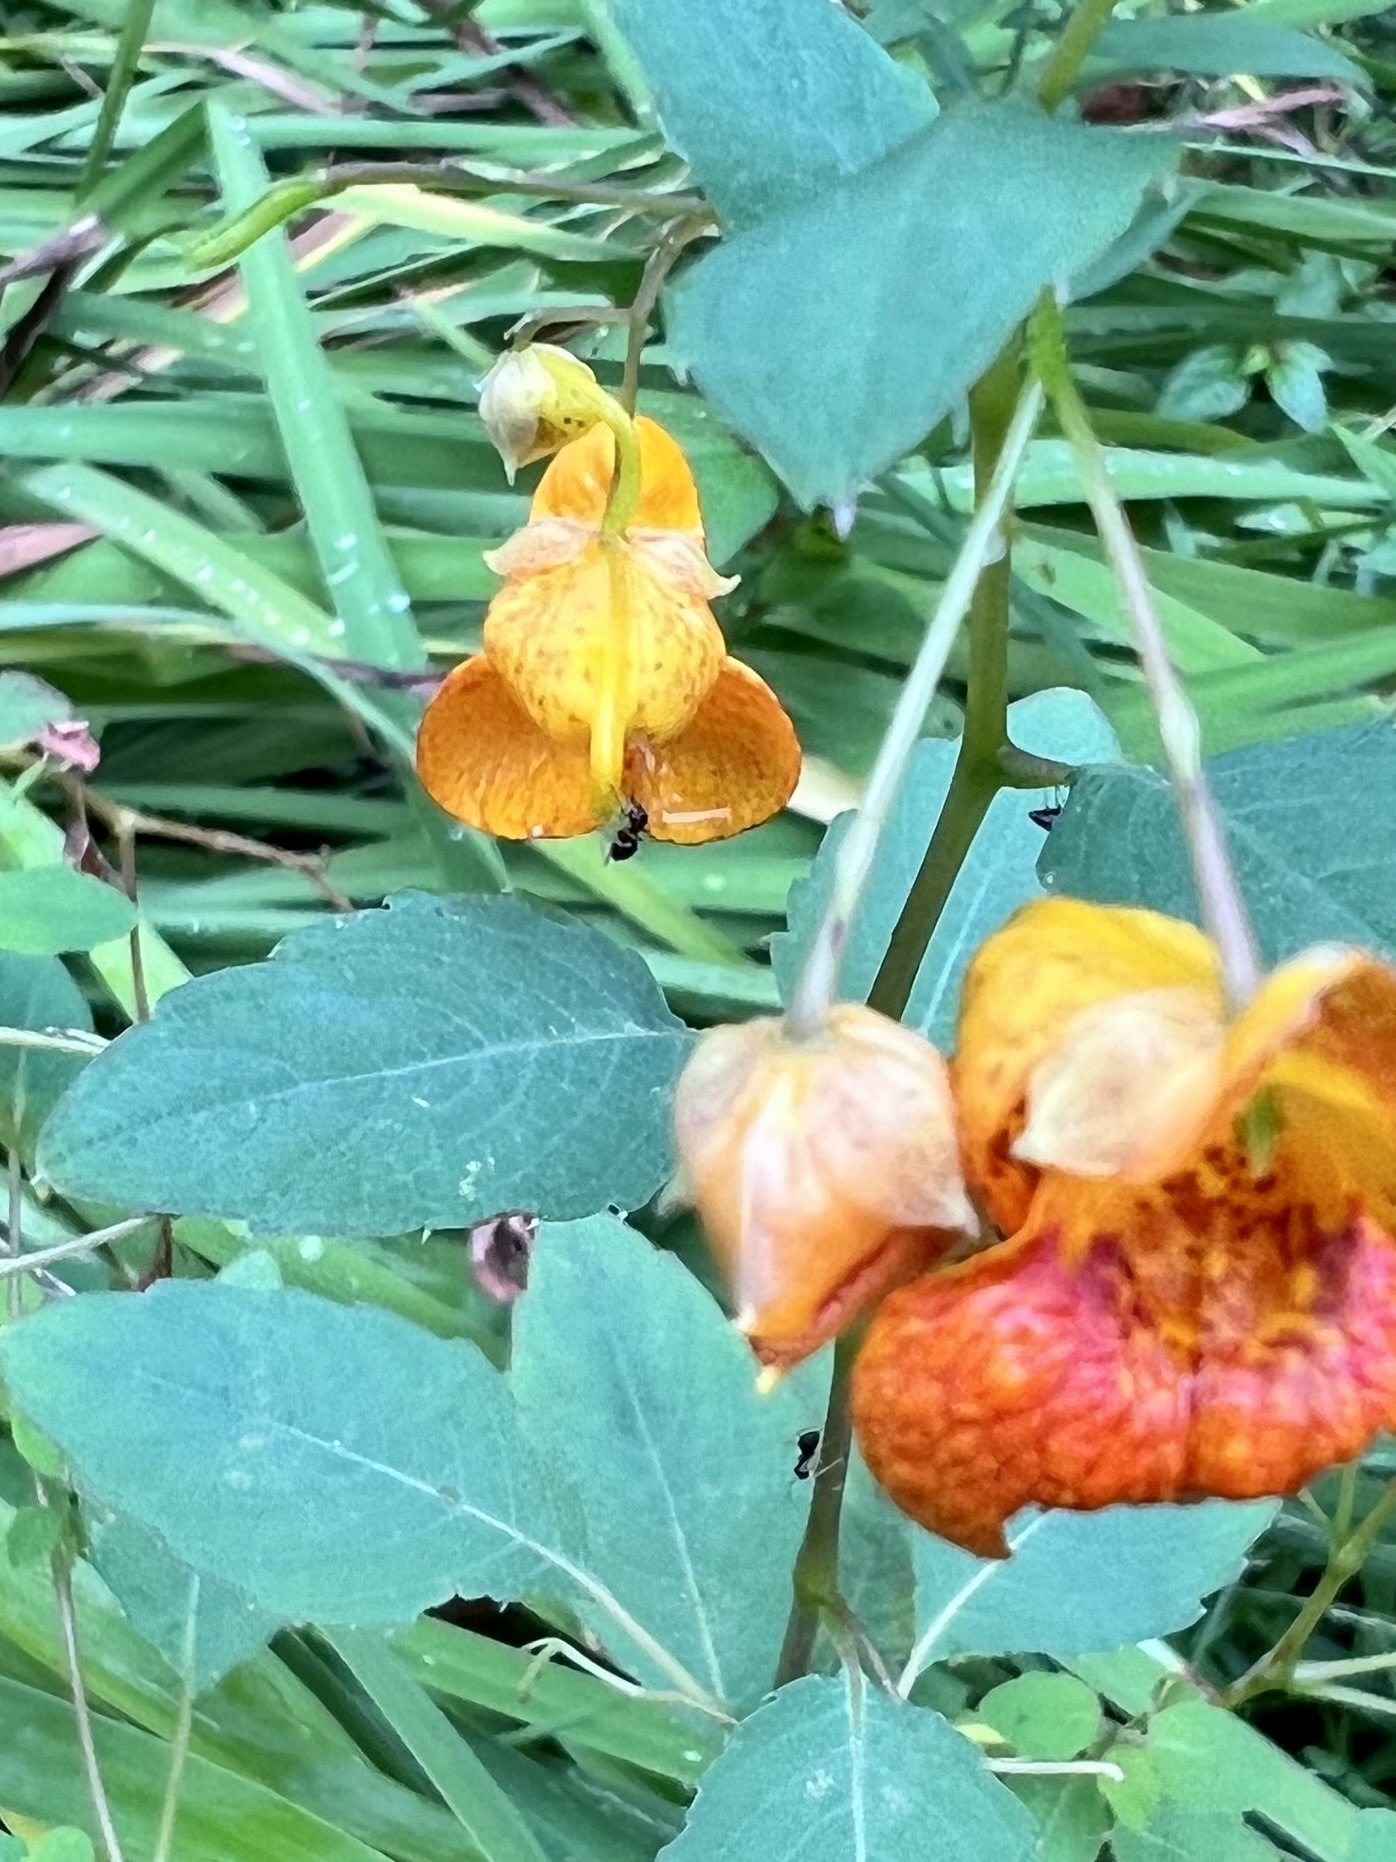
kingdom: Plantae
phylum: Tracheophyta
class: Magnoliopsida
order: Ericales
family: Balsaminaceae
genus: Impatiens
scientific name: Impatiens capensis
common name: Orange balsam
